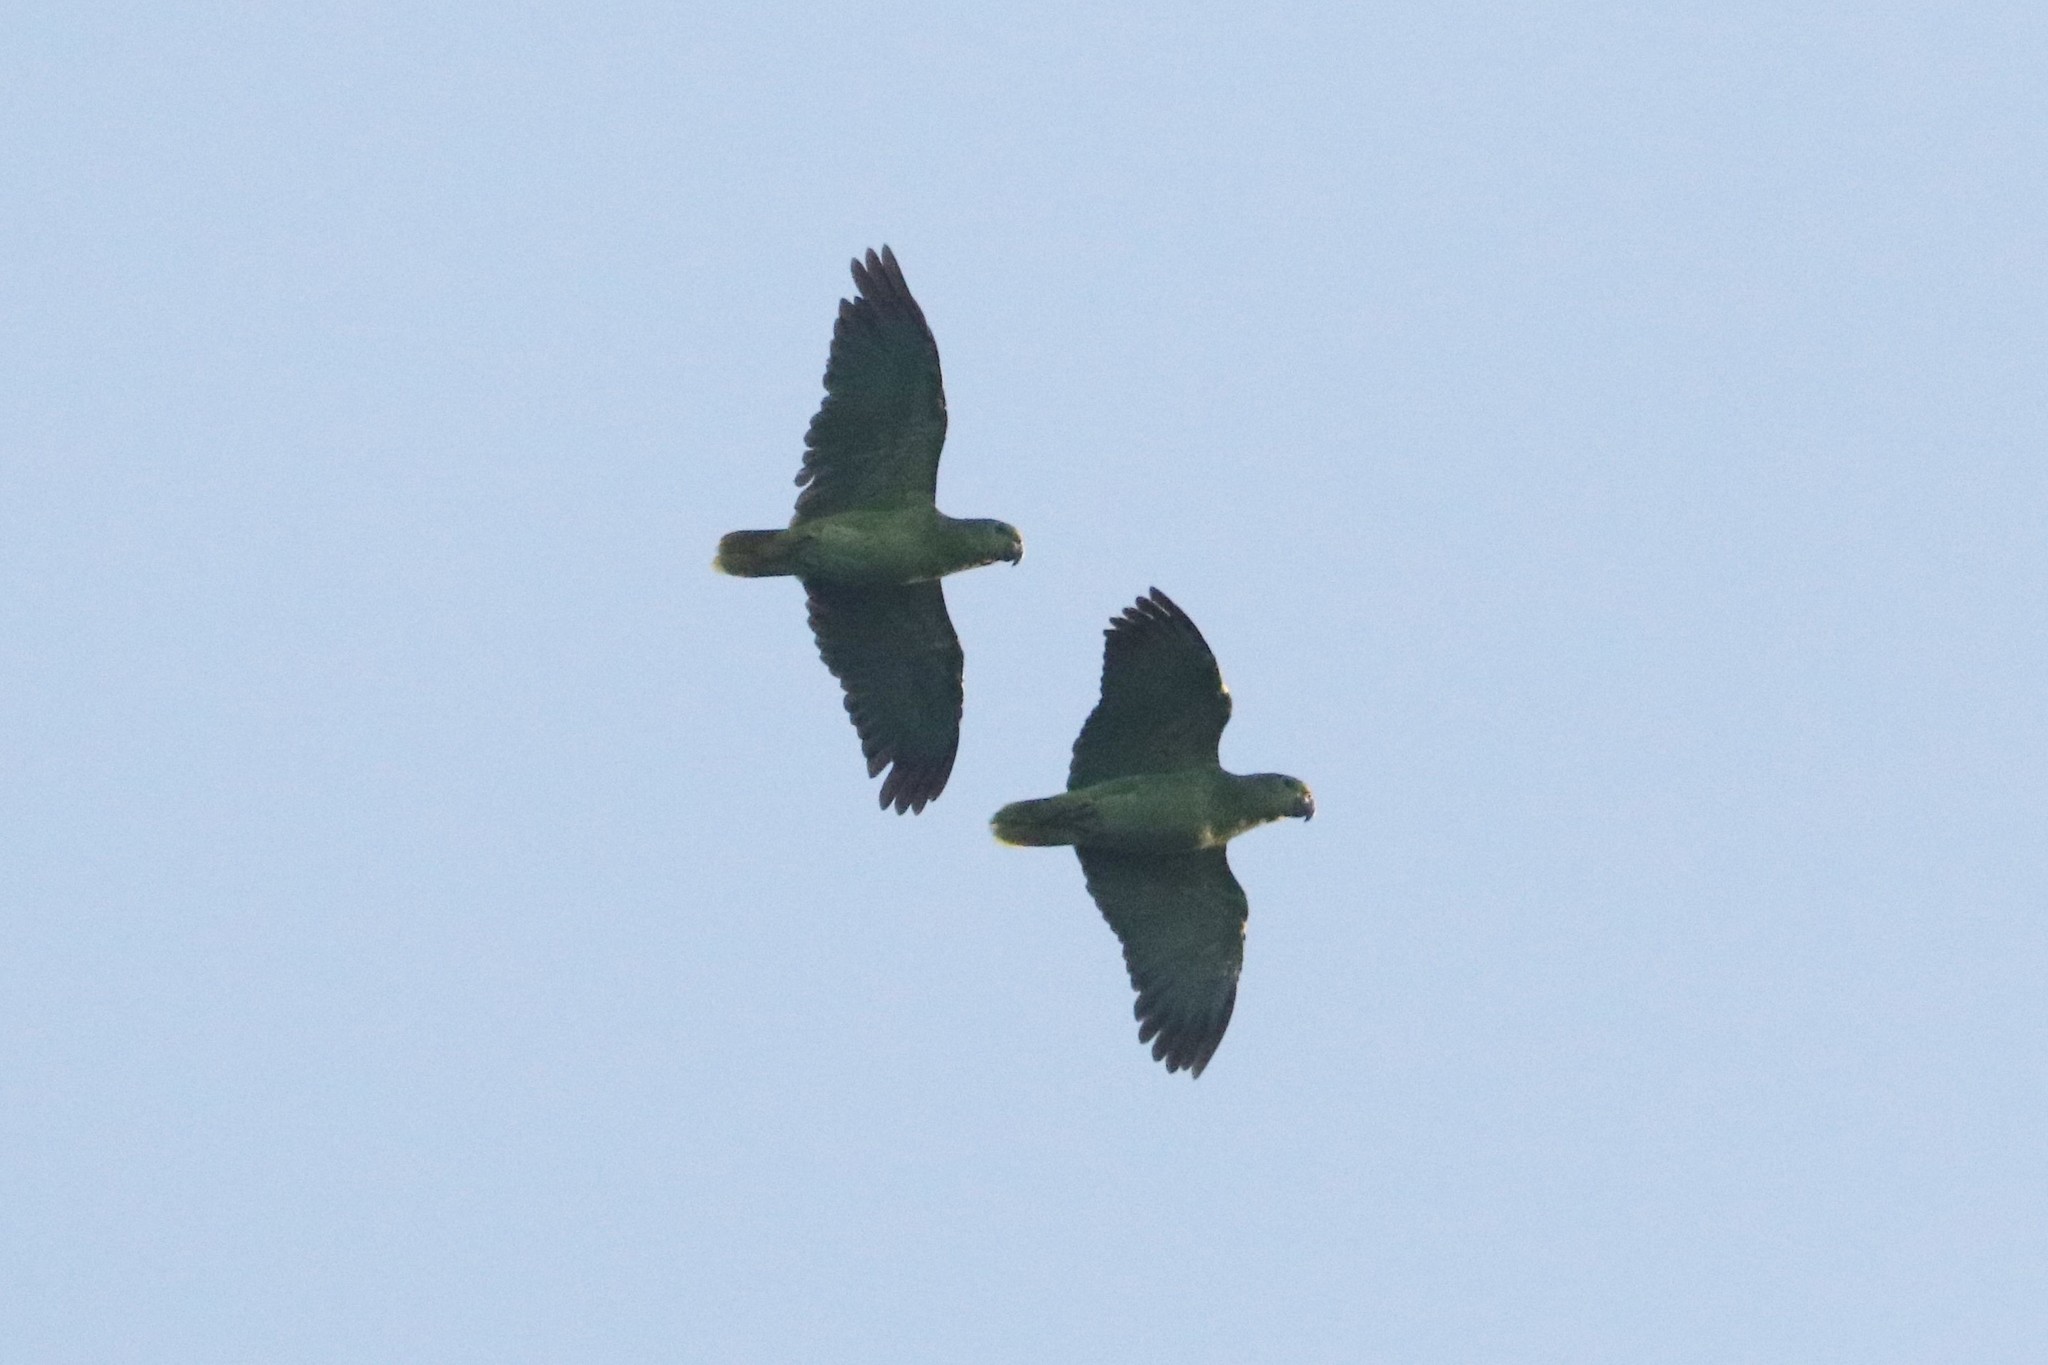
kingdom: Animalia
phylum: Chordata
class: Aves
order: Psittaciformes
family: Psittacidae
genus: Amazona
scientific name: Amazona mercenaria
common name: Scaly-naped amazon
